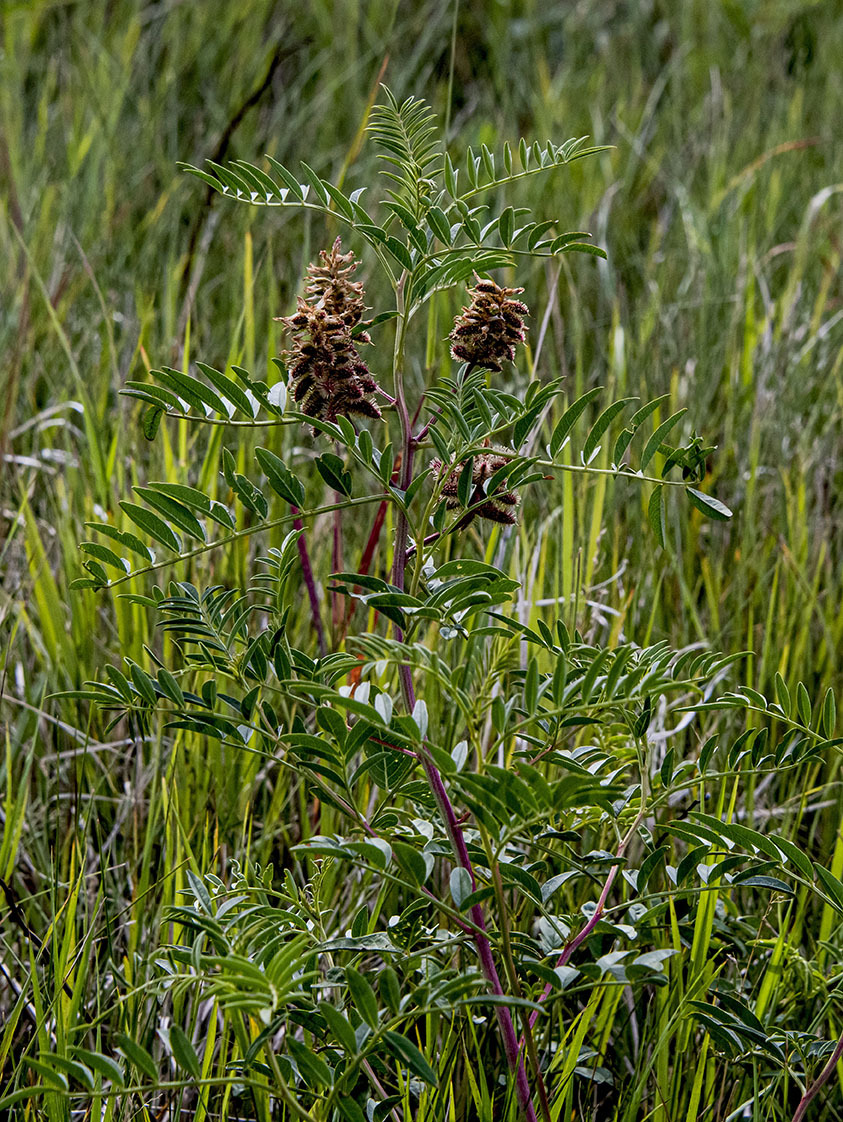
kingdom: Plantae
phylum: Tracheophyta
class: Magnoliopsida
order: Fabales
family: Fabaceae
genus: Glycyrrhiza
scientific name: Glycyrrhiza lepidota
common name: American liquorice
